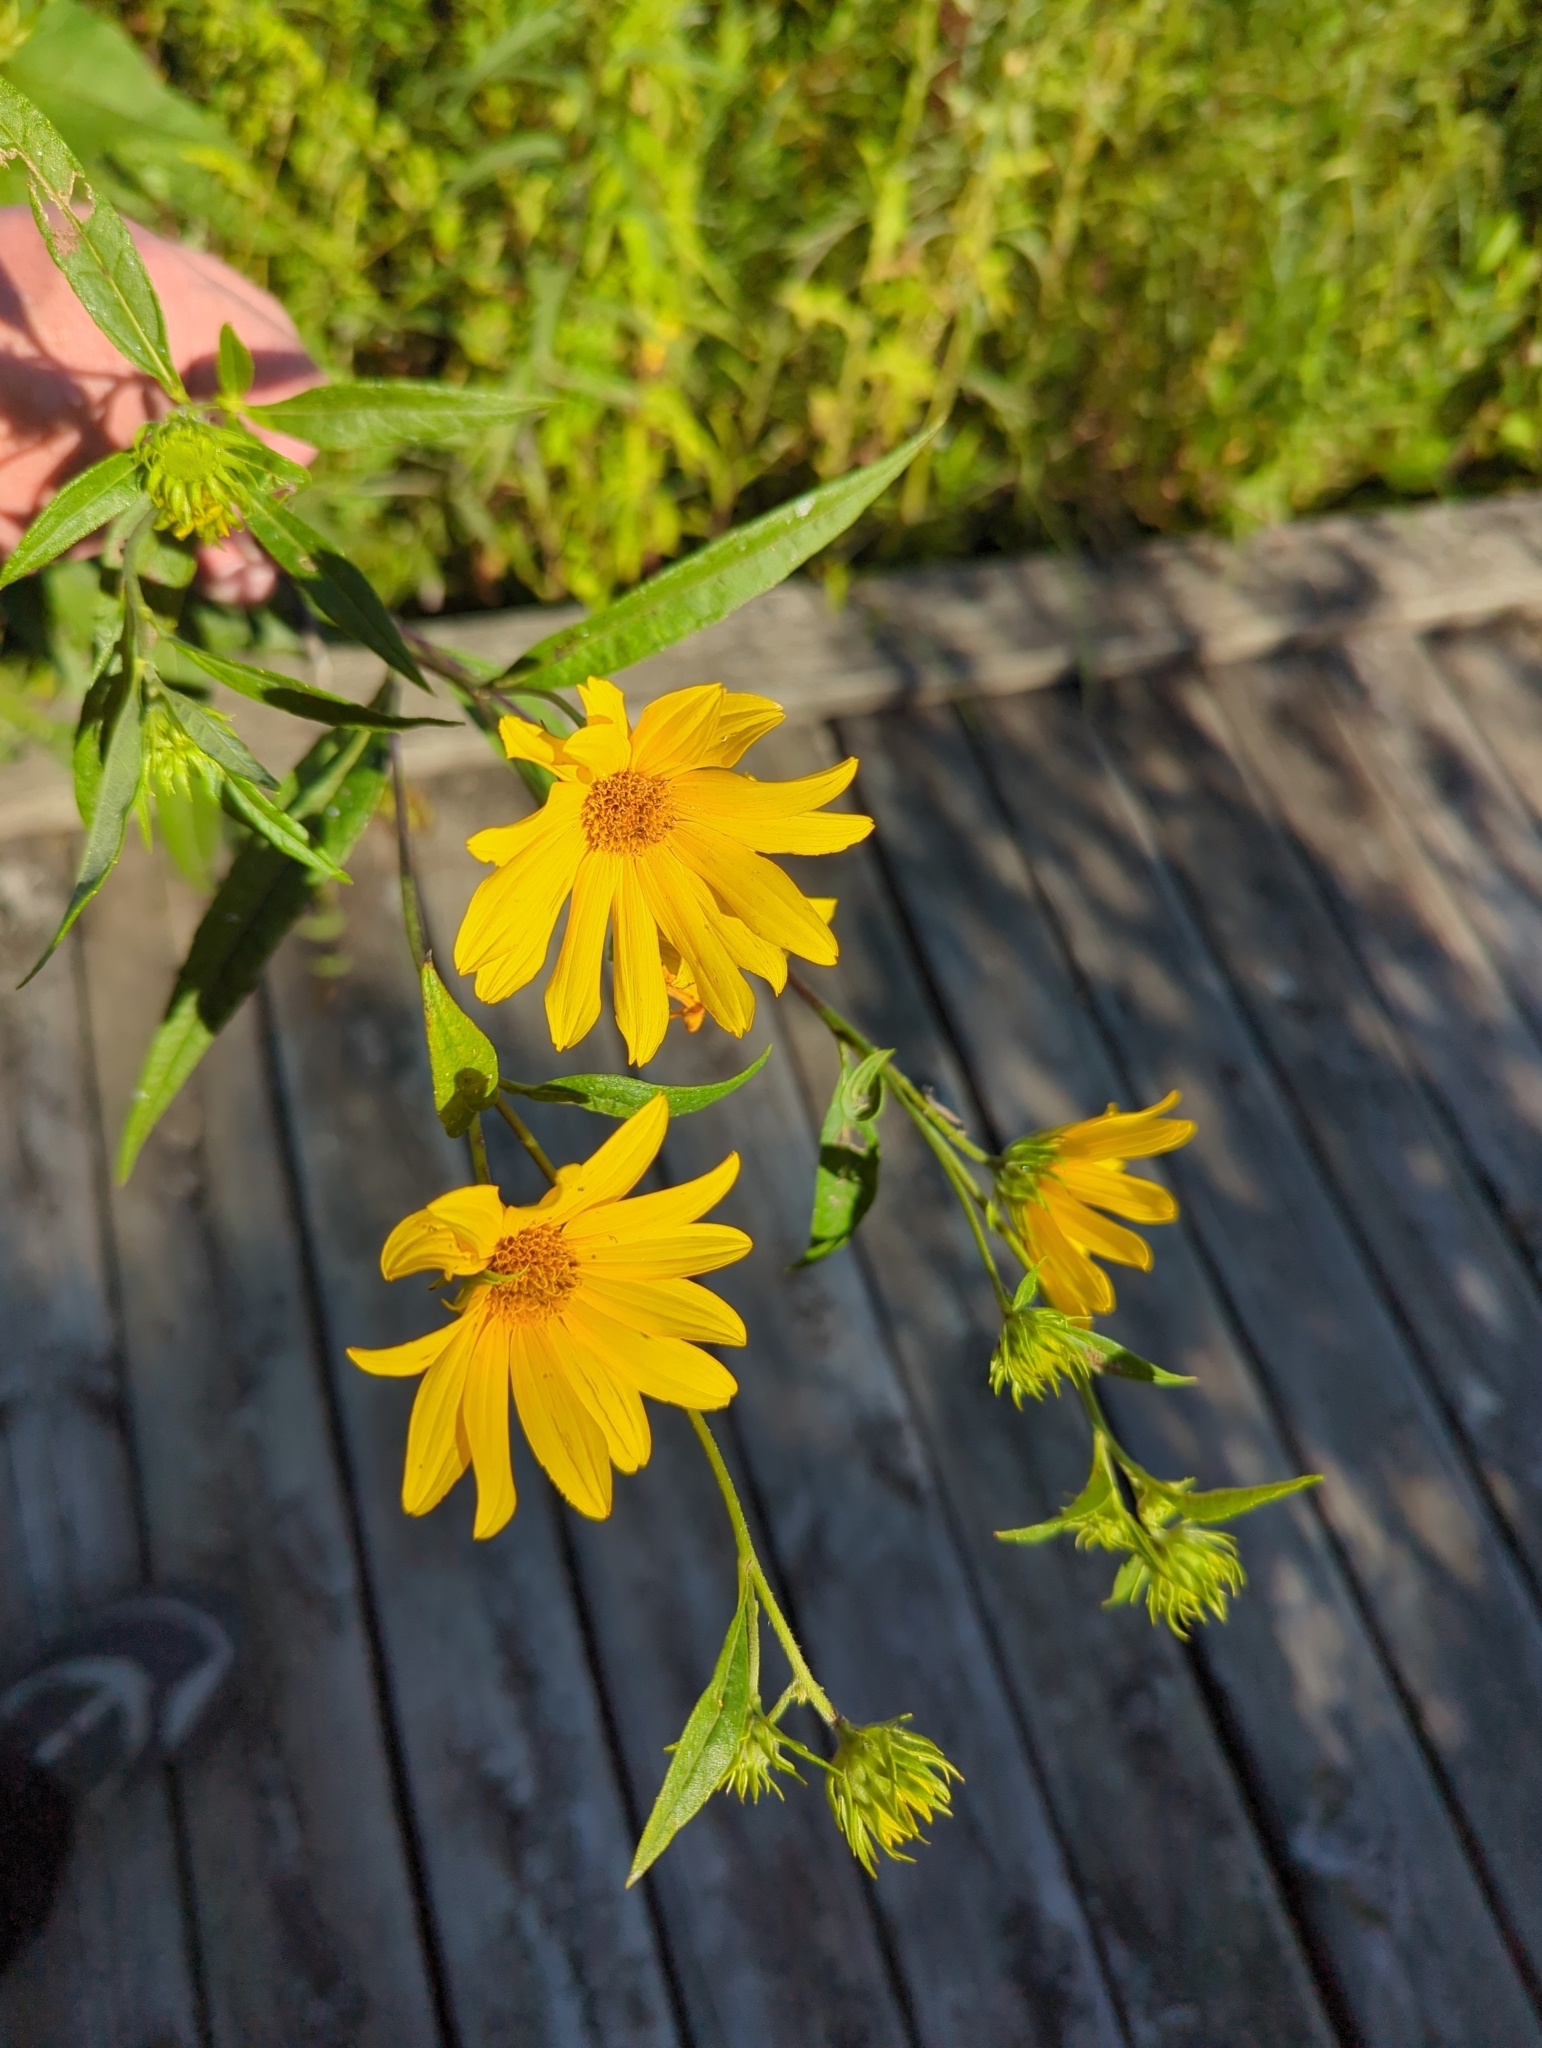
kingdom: Plantae
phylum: Tracheophyta
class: Magnoliopsida
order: Asterales
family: Asteraceae
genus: Helianthus
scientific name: Helianthus grosseserratus
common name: Sawtooth sunflower
